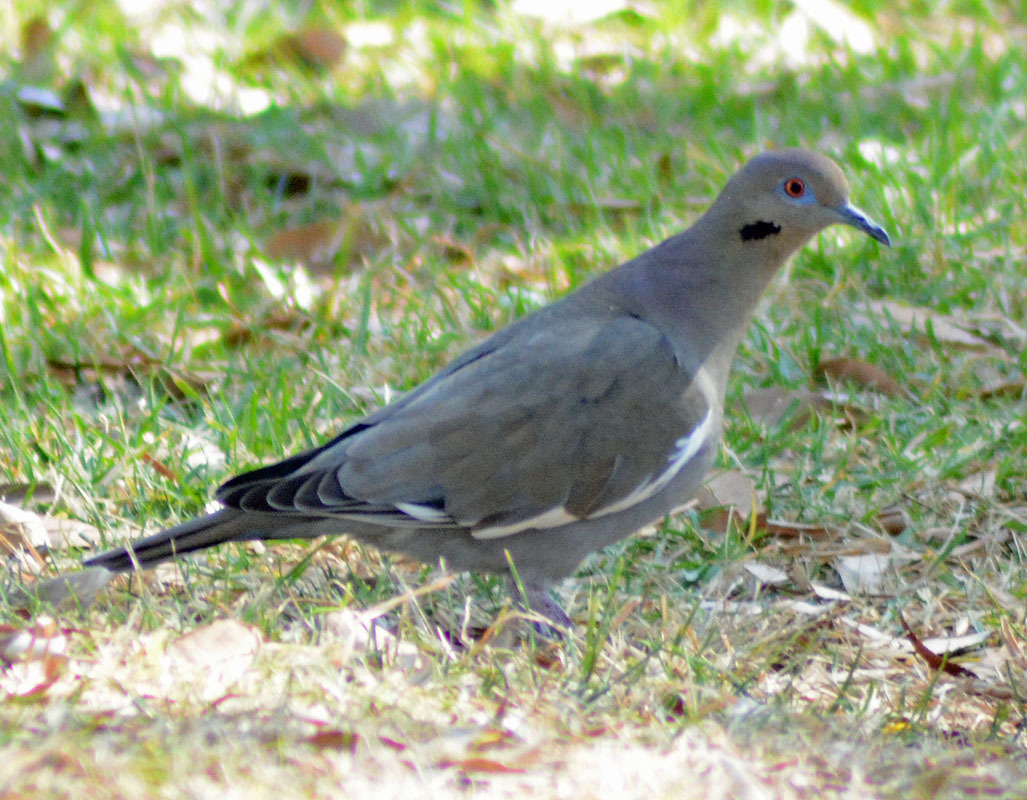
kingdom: Animalia
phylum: Chordata
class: Aves
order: Columbiformes
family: Columbidae
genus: Zenaida
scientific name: Zenaida asiatica
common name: White-winged dove
